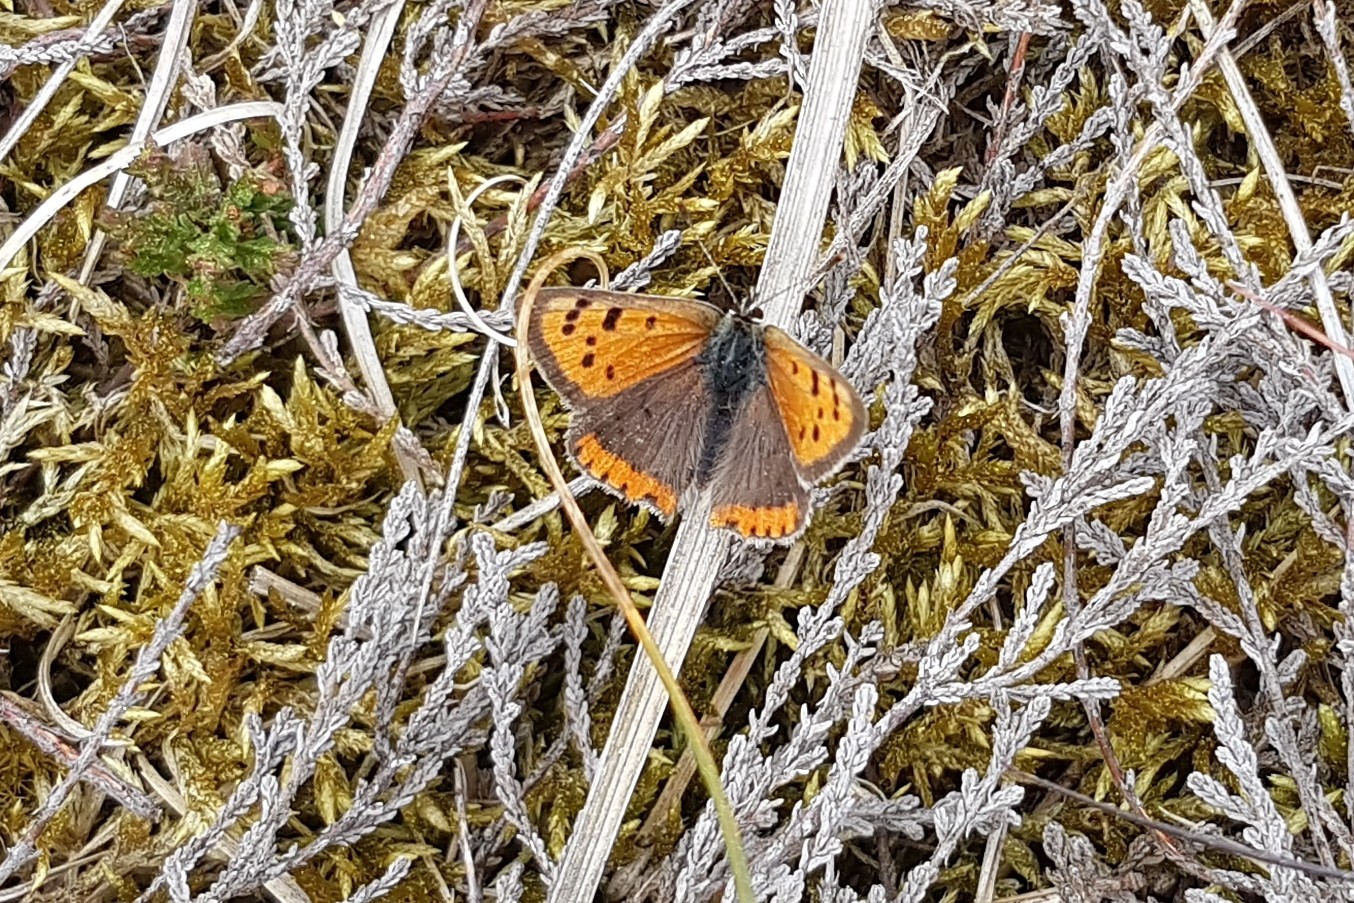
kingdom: Animalia
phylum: Arthropoda
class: Insecta
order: Lepidoptera
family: Lycaenidae
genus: Lycaena
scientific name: Lycaena phlaeas
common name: Small copper
